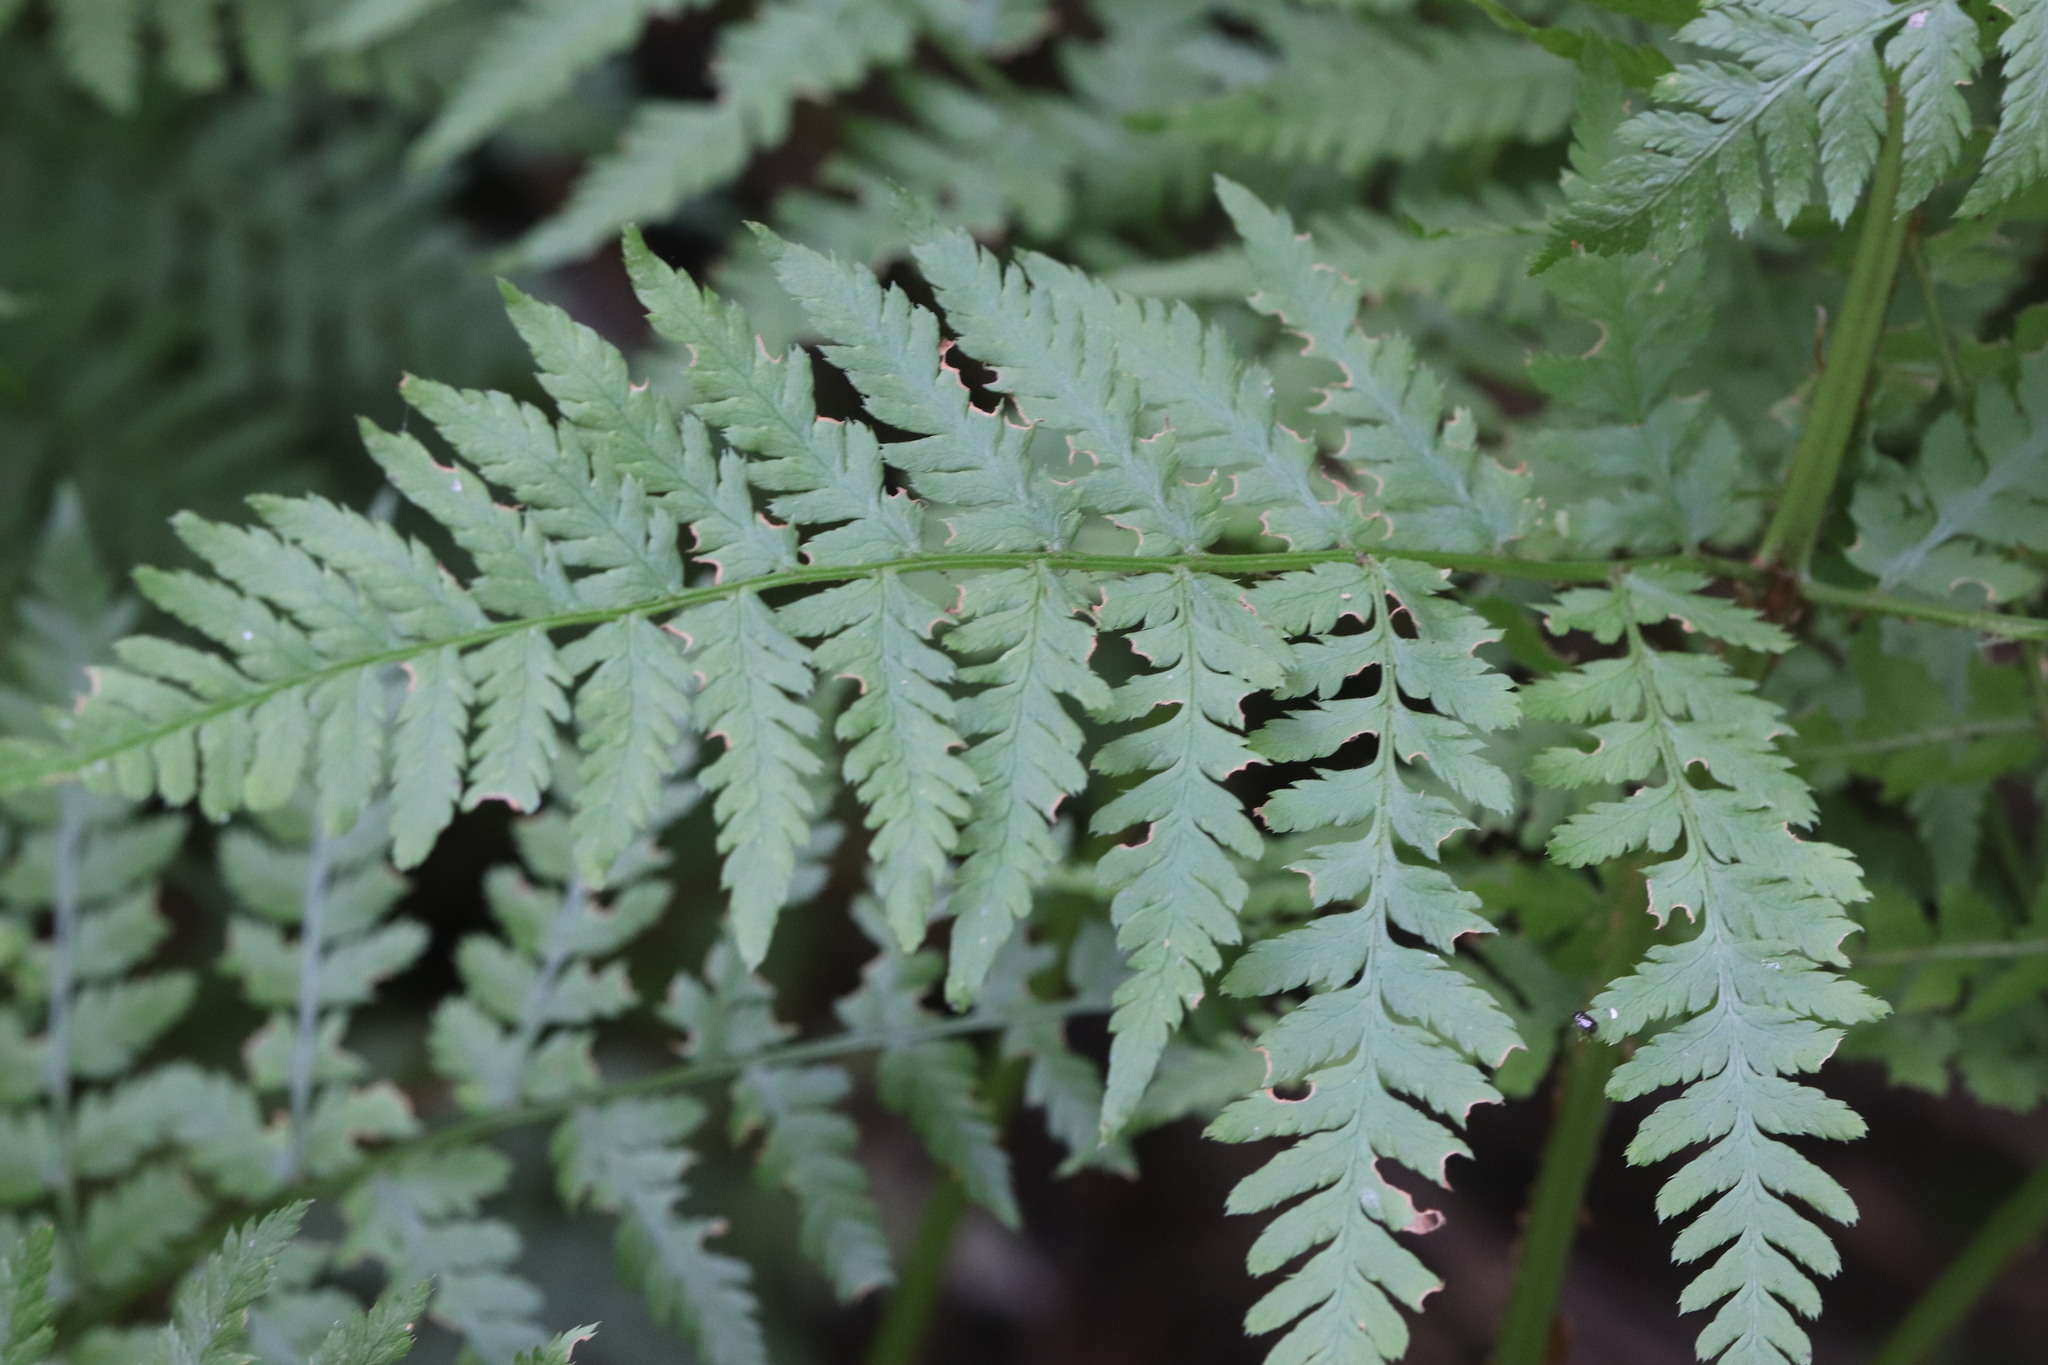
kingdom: Plantae
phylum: Tracheophyta
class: Polypodiopsida
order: Polypodiales
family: Dryopteridaceae
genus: Dryopteris
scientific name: Dryopteris expansa
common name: Northern buckler fern
